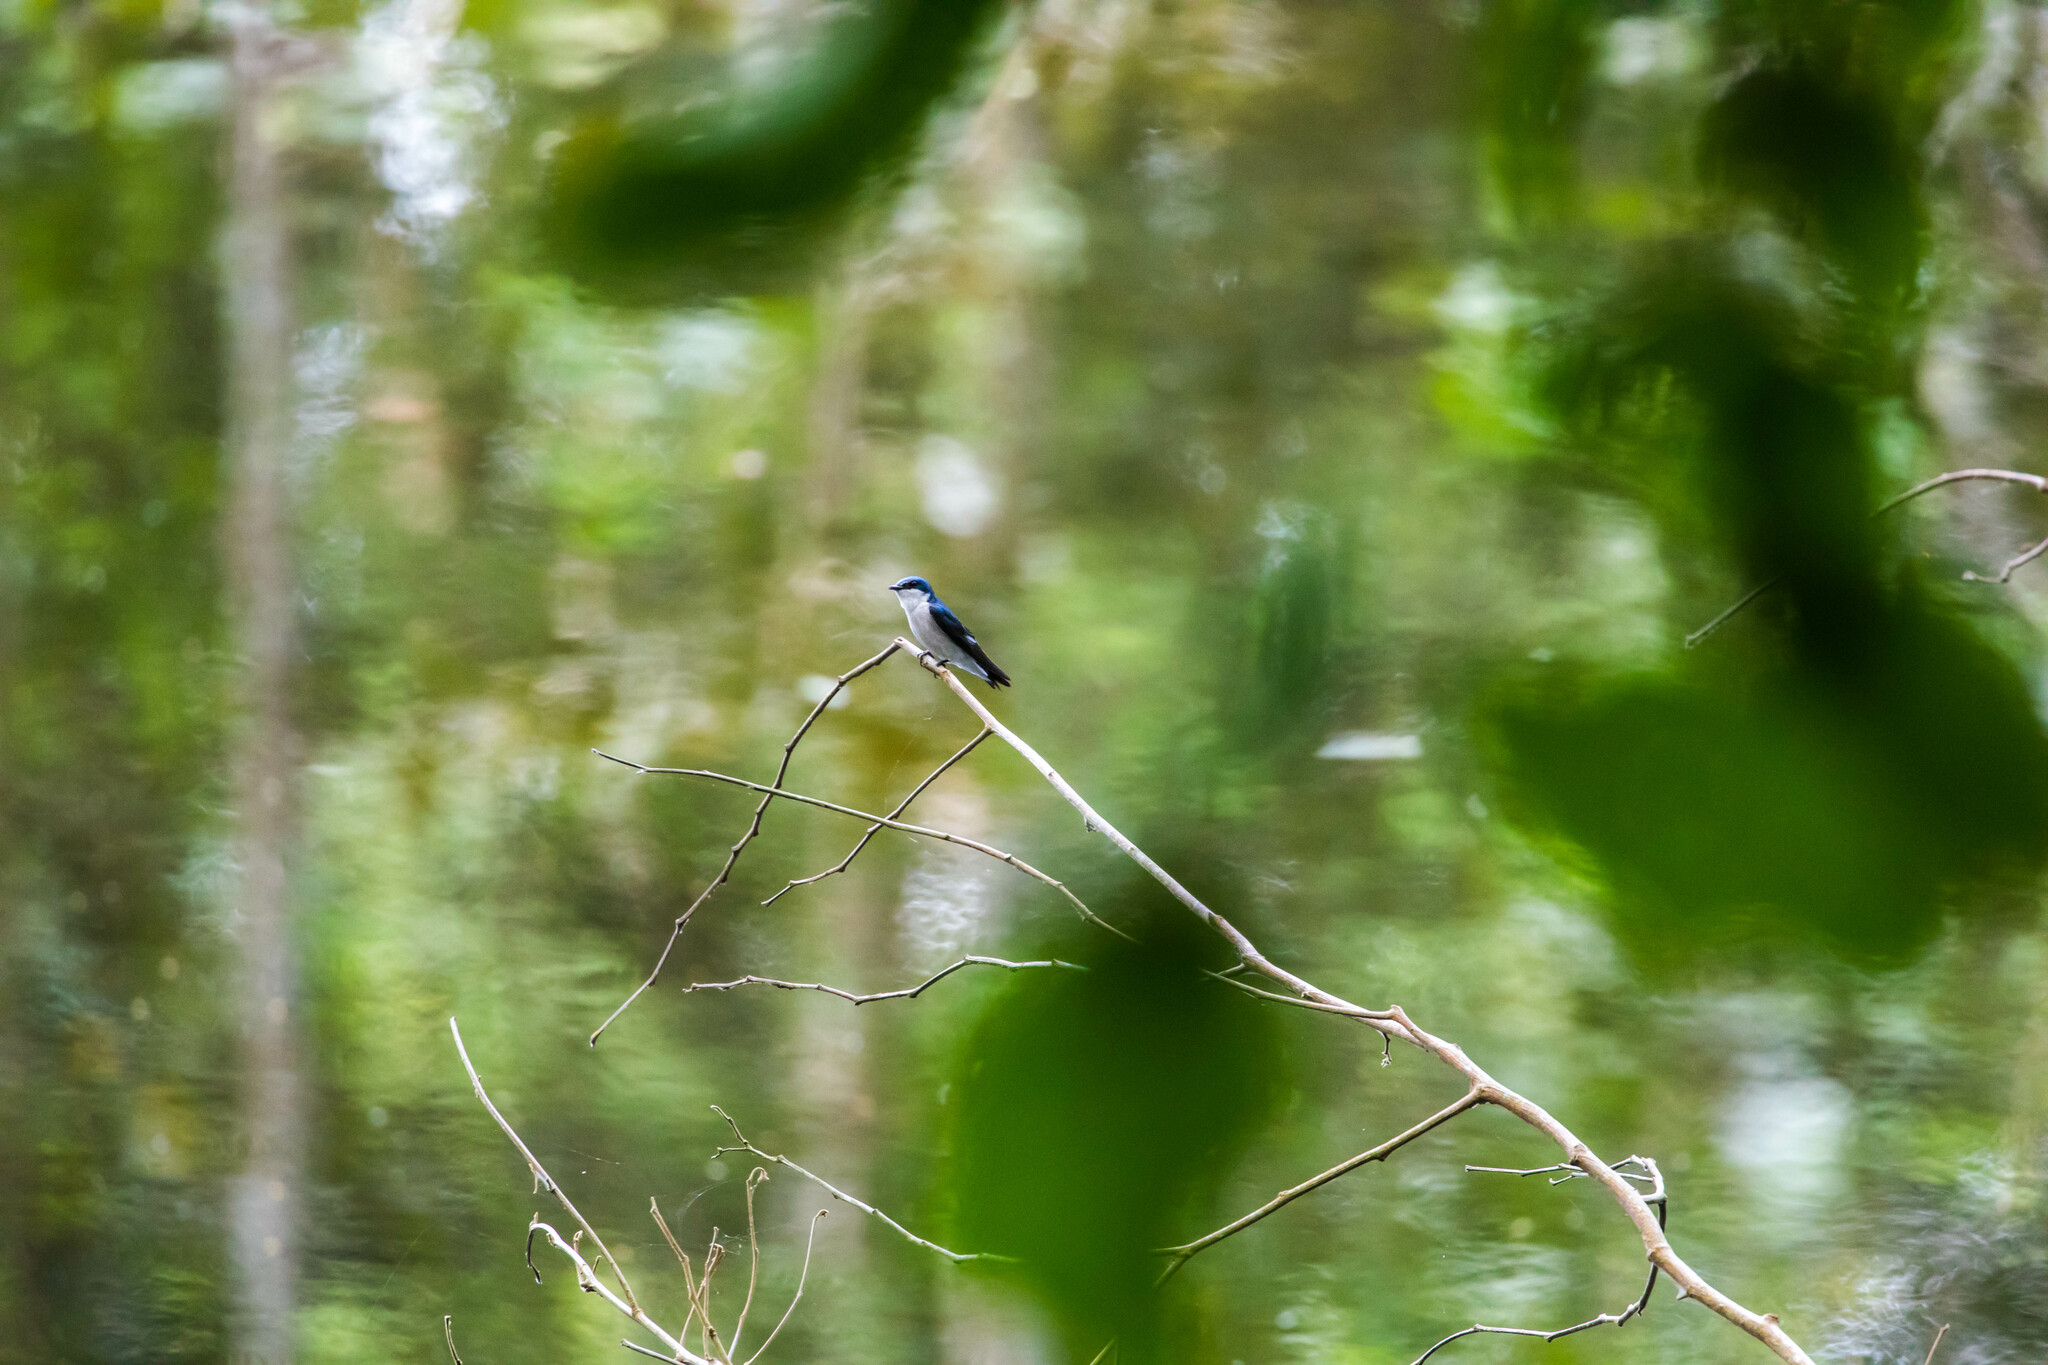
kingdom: Animalia
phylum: Chordata
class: Aves
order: Passeriformes
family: Hirundinidae
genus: Tachycineta
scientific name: Tachycineta albilinea
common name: Mangrove swallow
